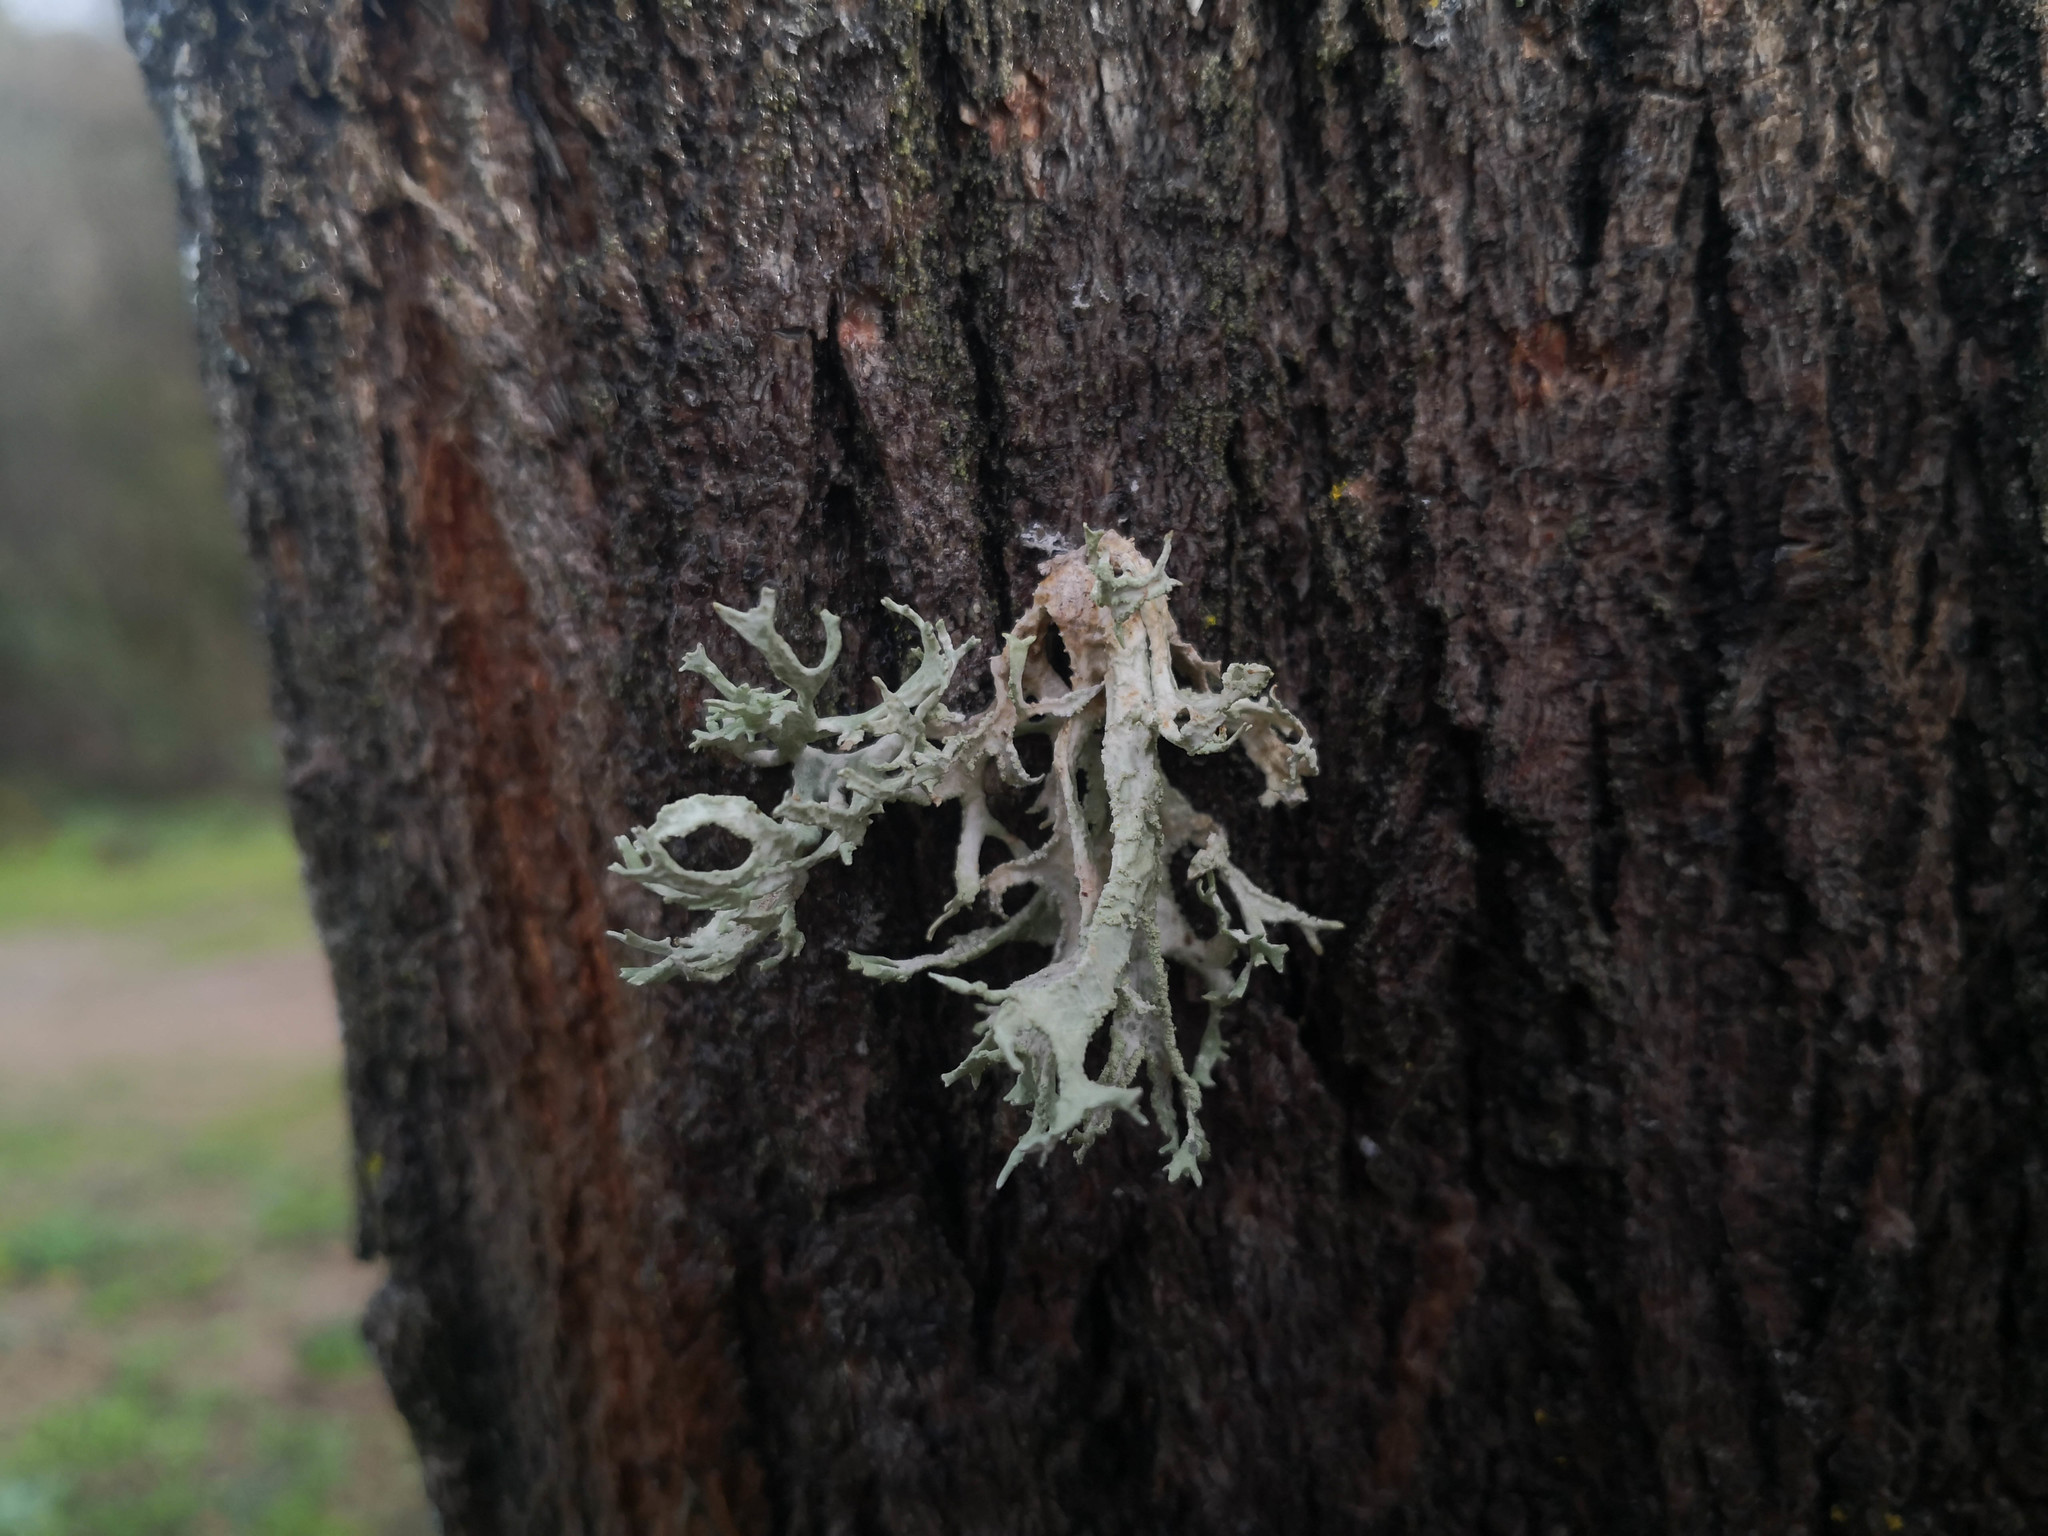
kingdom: Fungi
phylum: Ascomycota
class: Lecanoromycetes
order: Lecanorales
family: Parmeliaceae
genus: Evernia
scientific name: Evernia prunastri
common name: Oak moss
